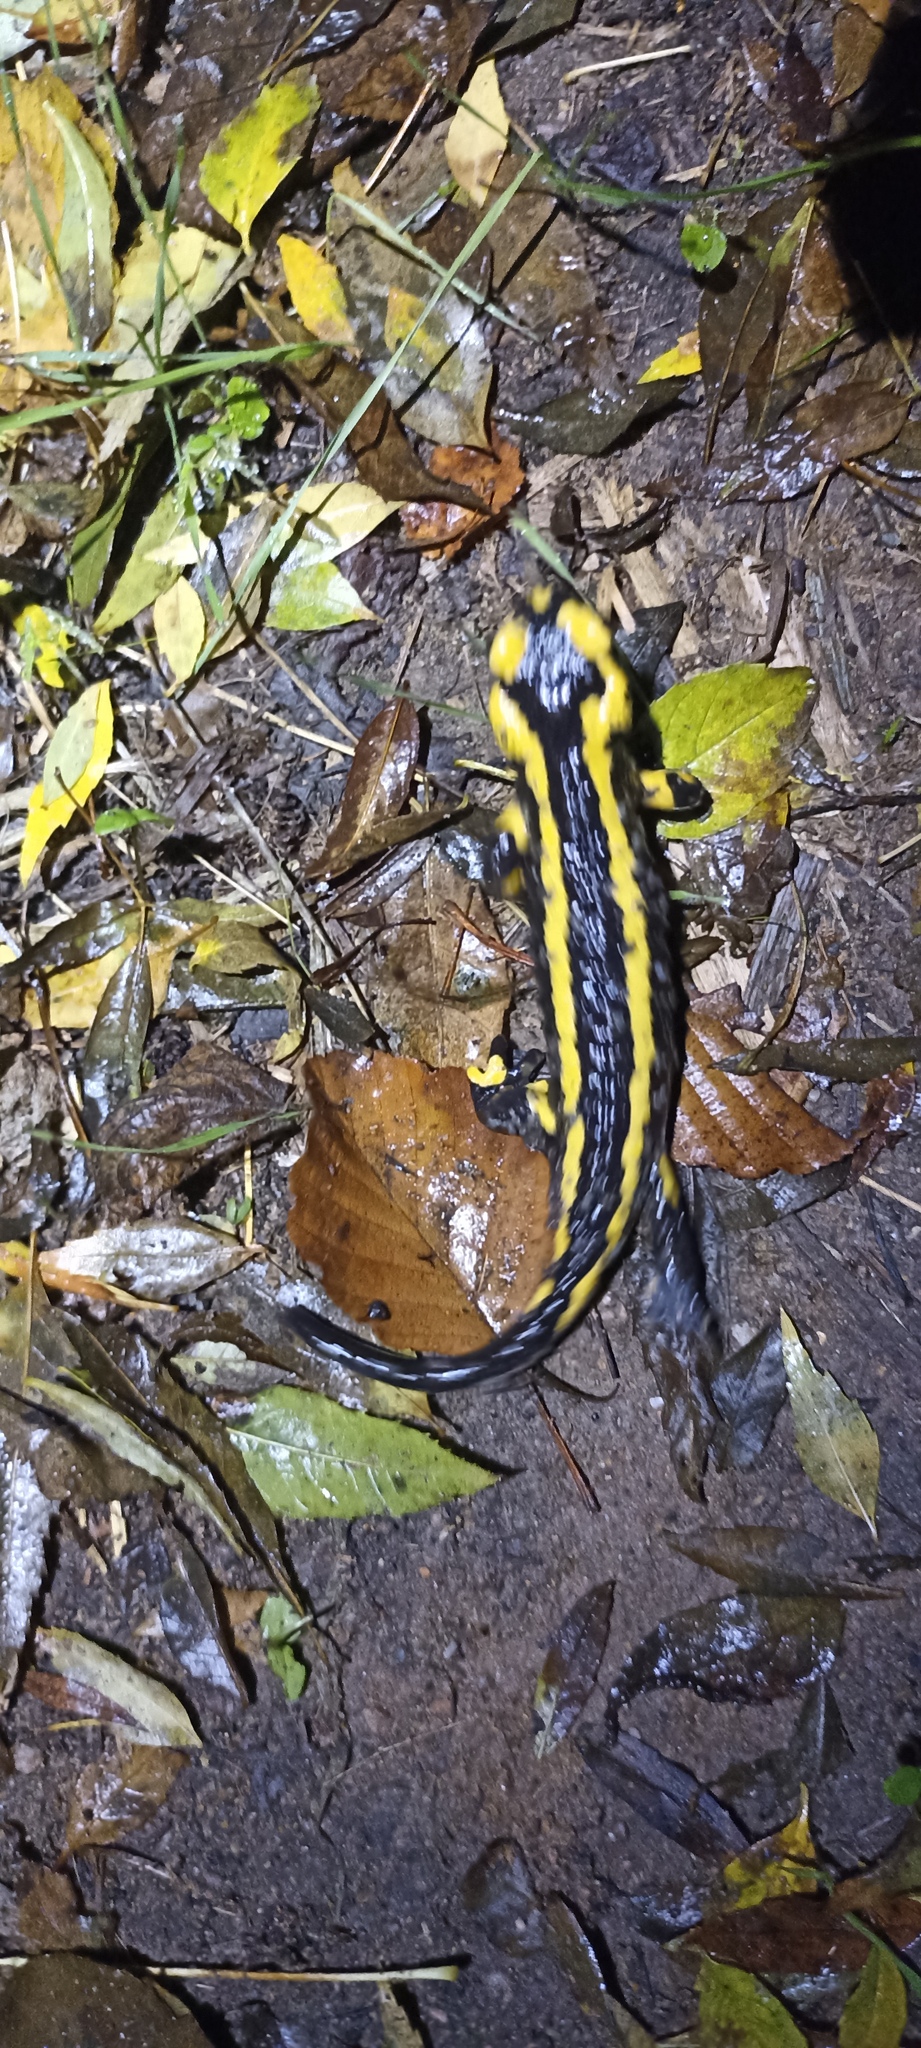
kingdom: Animalia
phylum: Chordata
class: Amphibia
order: Caudata
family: Salamandridae
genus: Salamandra
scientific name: Salamandra salamandra
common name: Fire salamander
